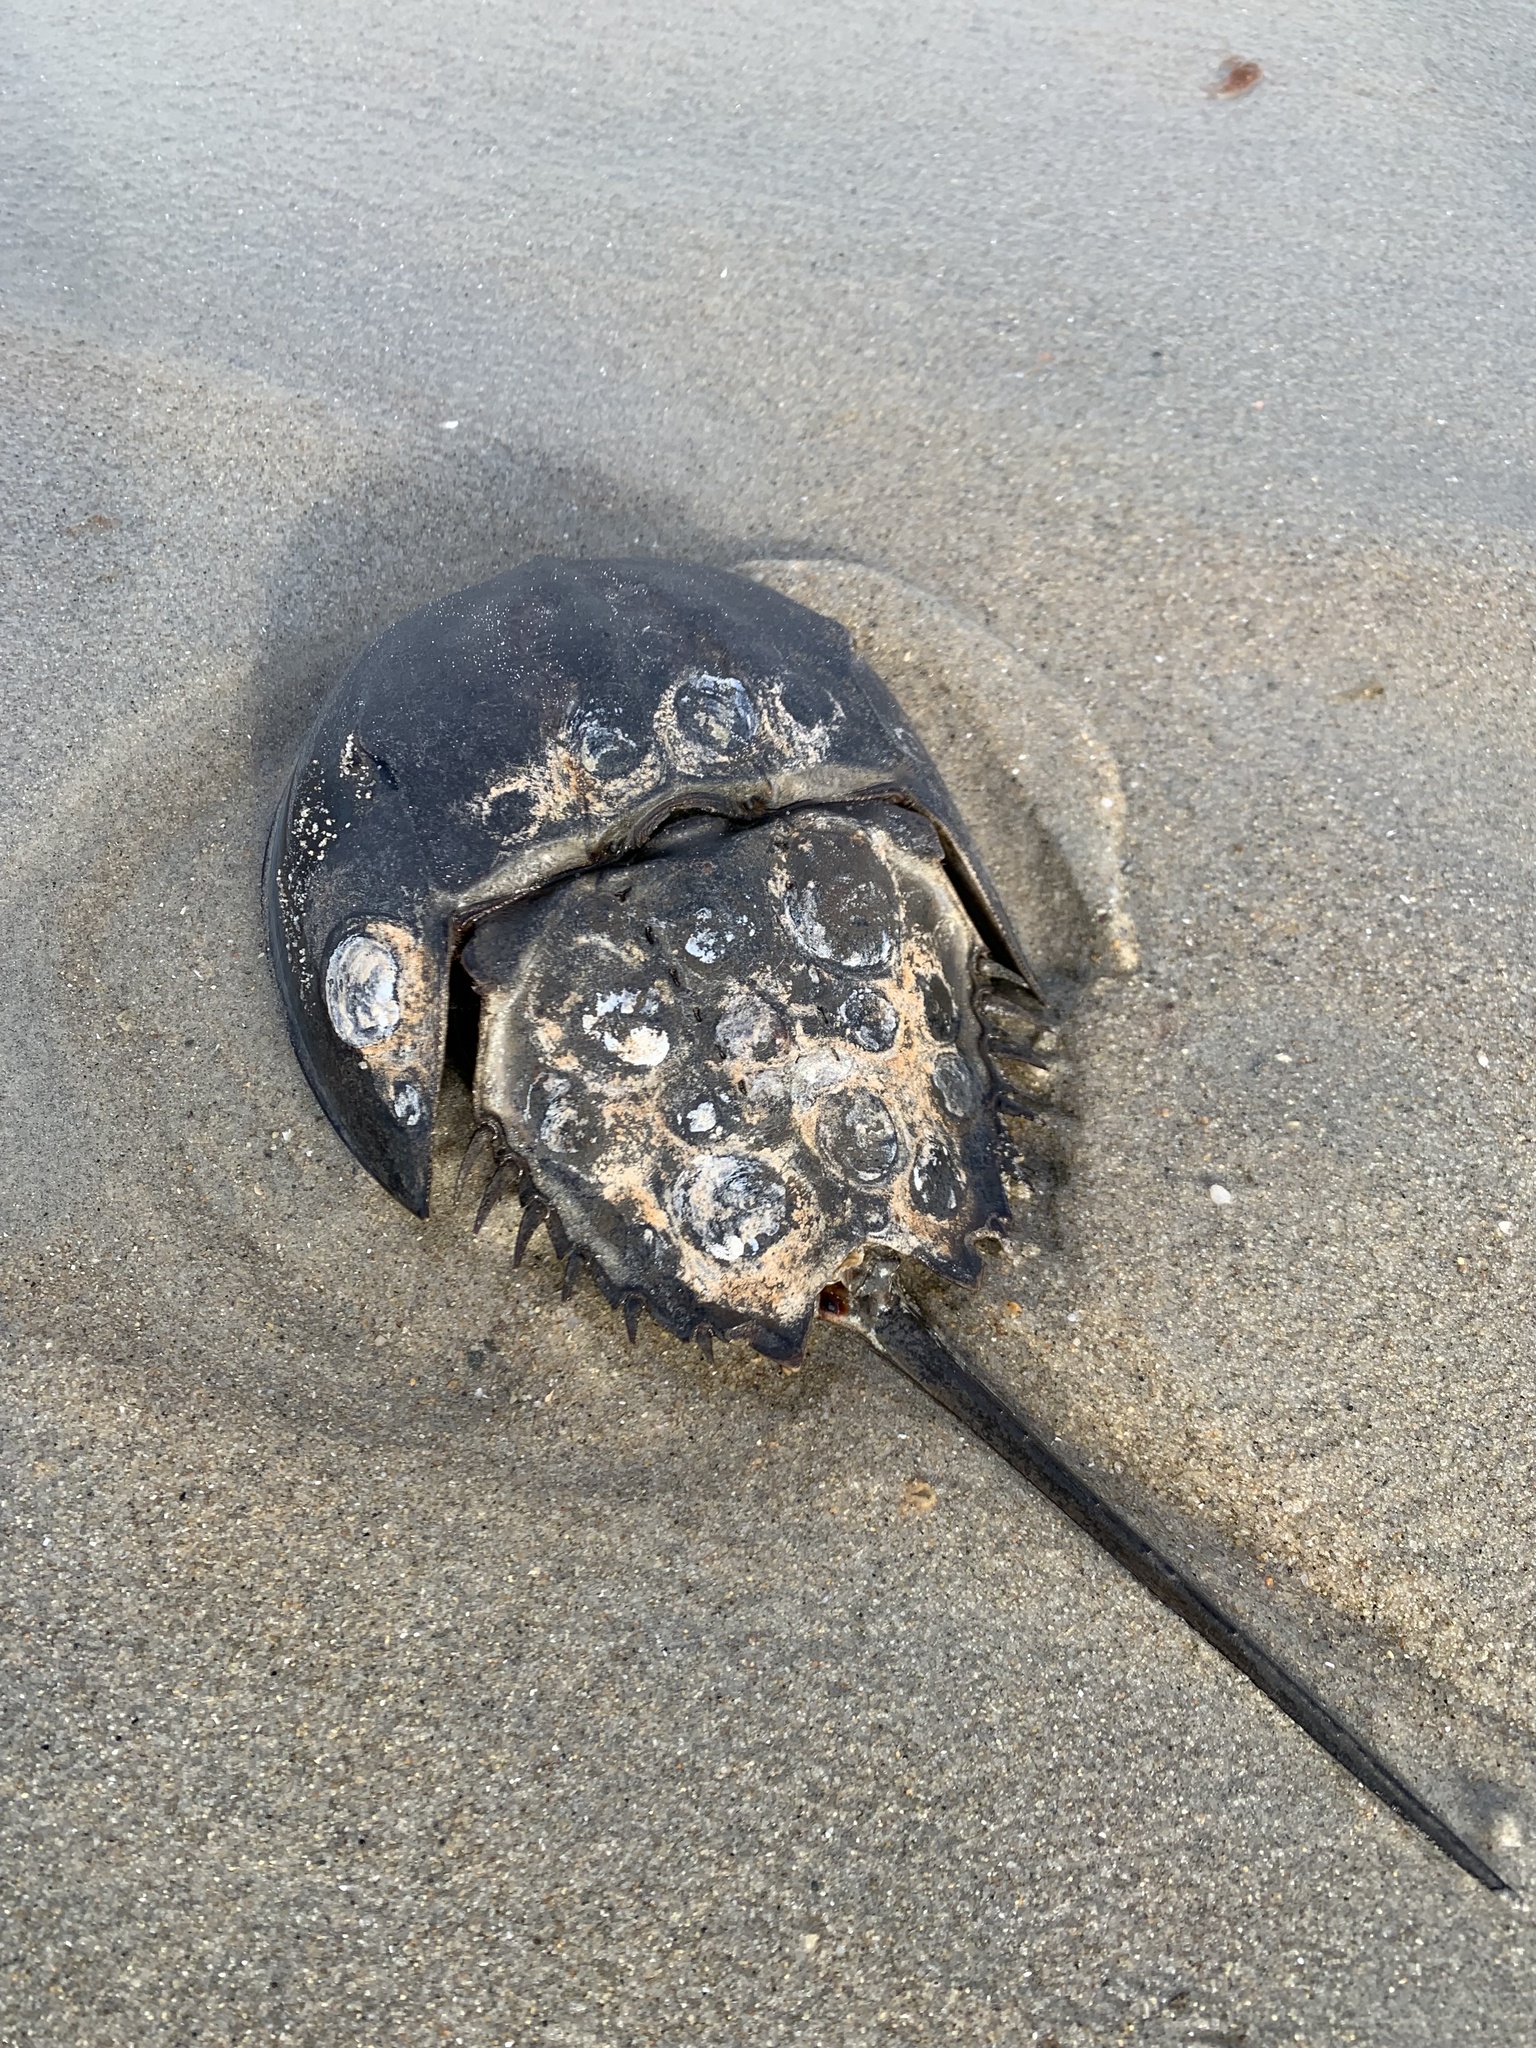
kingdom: Animalia
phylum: Arthropoda
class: Merostomata
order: Xiphosurida
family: Limulidae
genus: Limulus
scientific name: Limulus polyphemus
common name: Horseshoe crab
